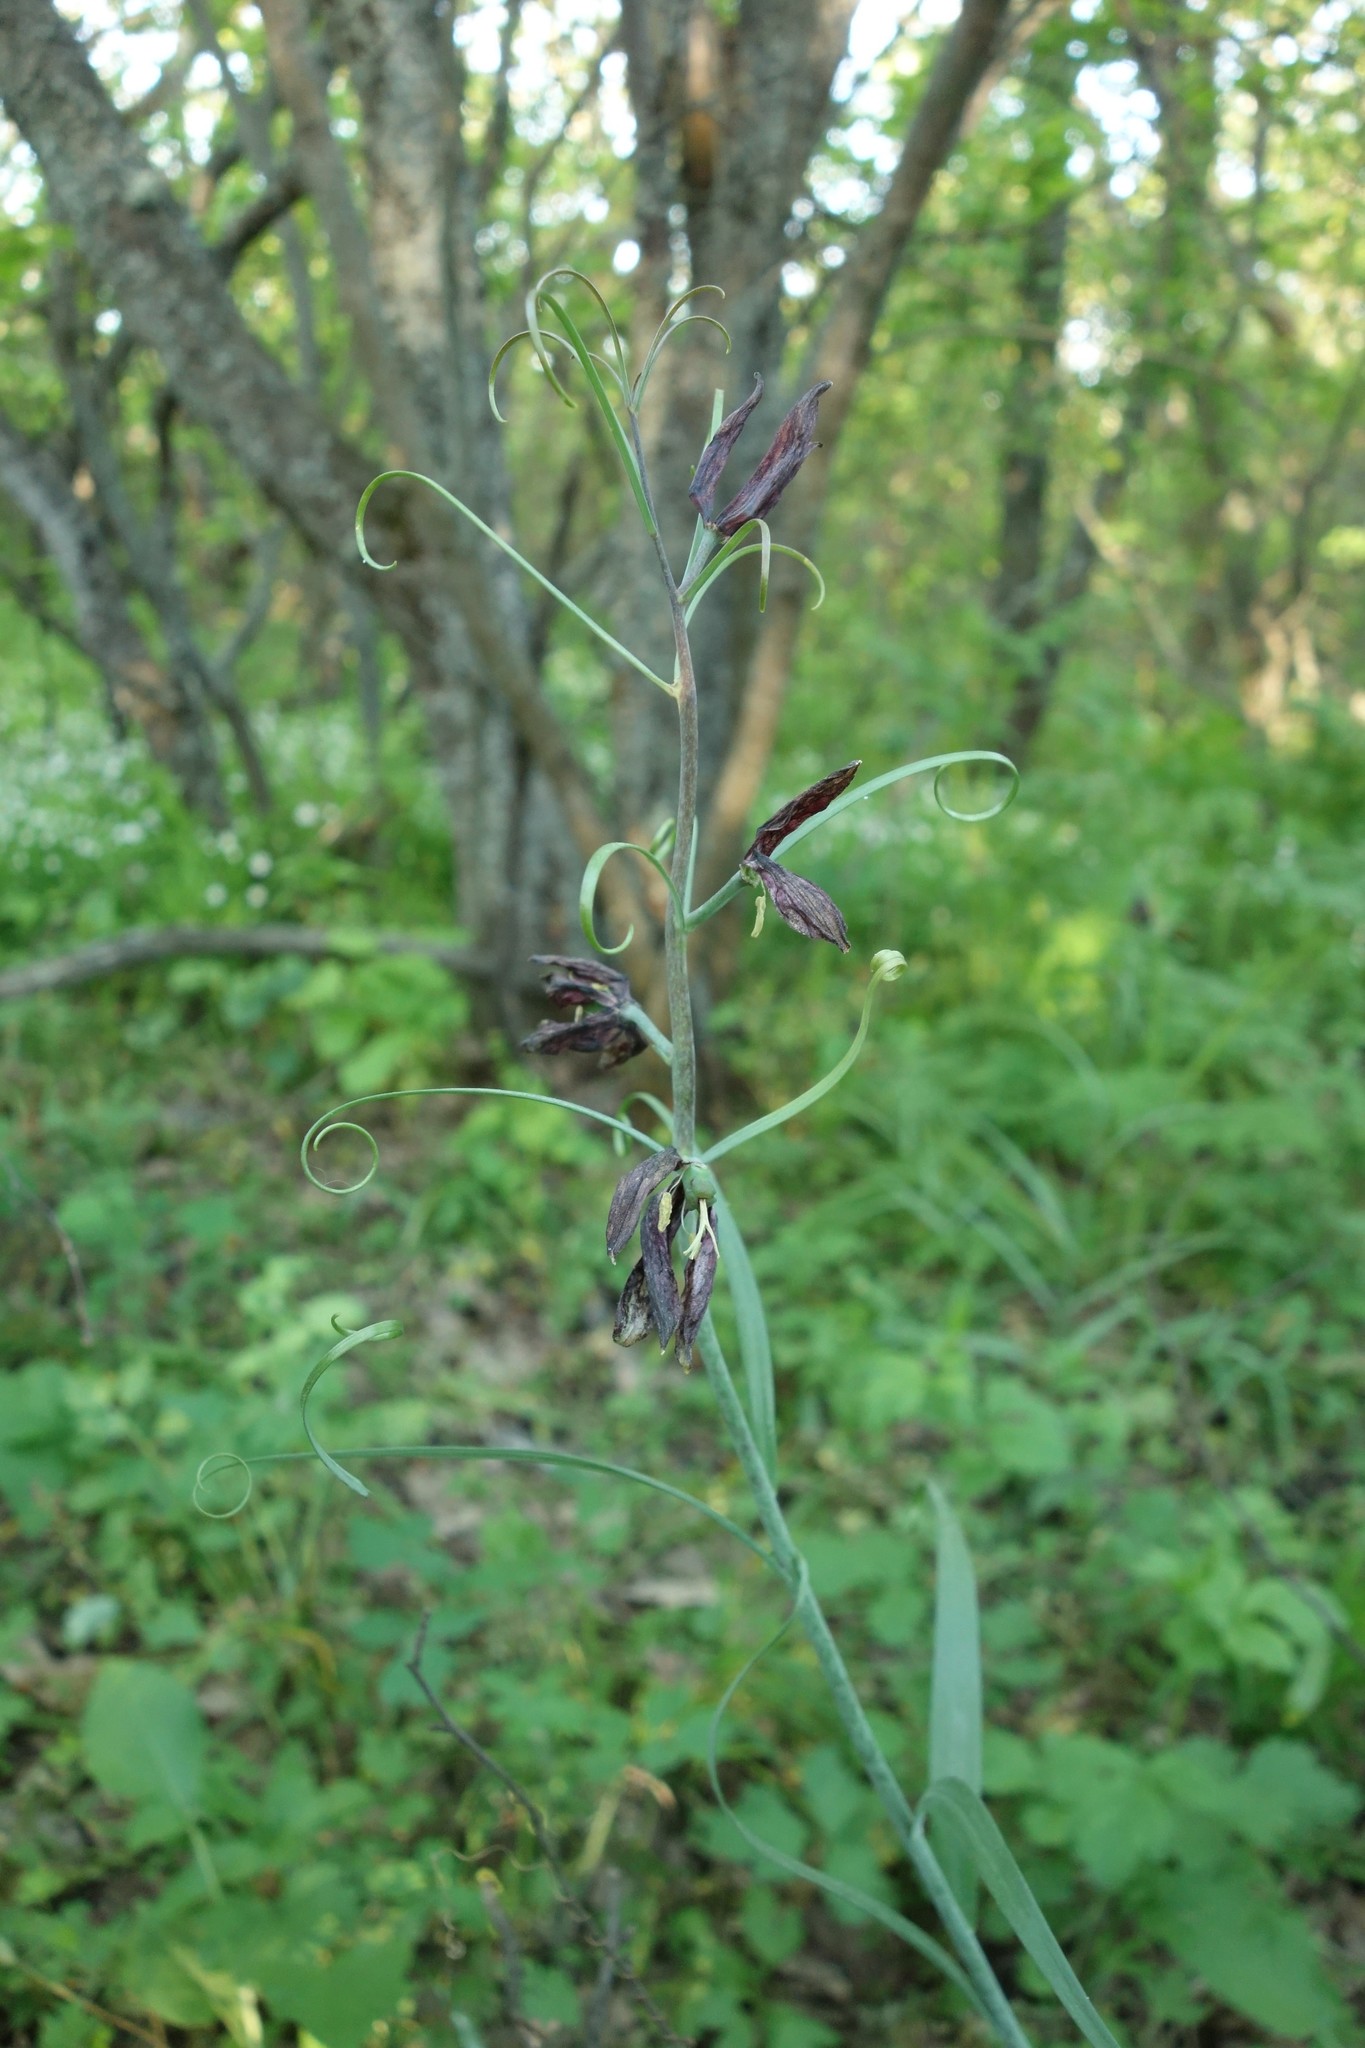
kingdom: Plantae
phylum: Tracheophyta
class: Liliopsida
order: Liliales
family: Liliaceae
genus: Fritillaria
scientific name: Fritillaria ruthenica
